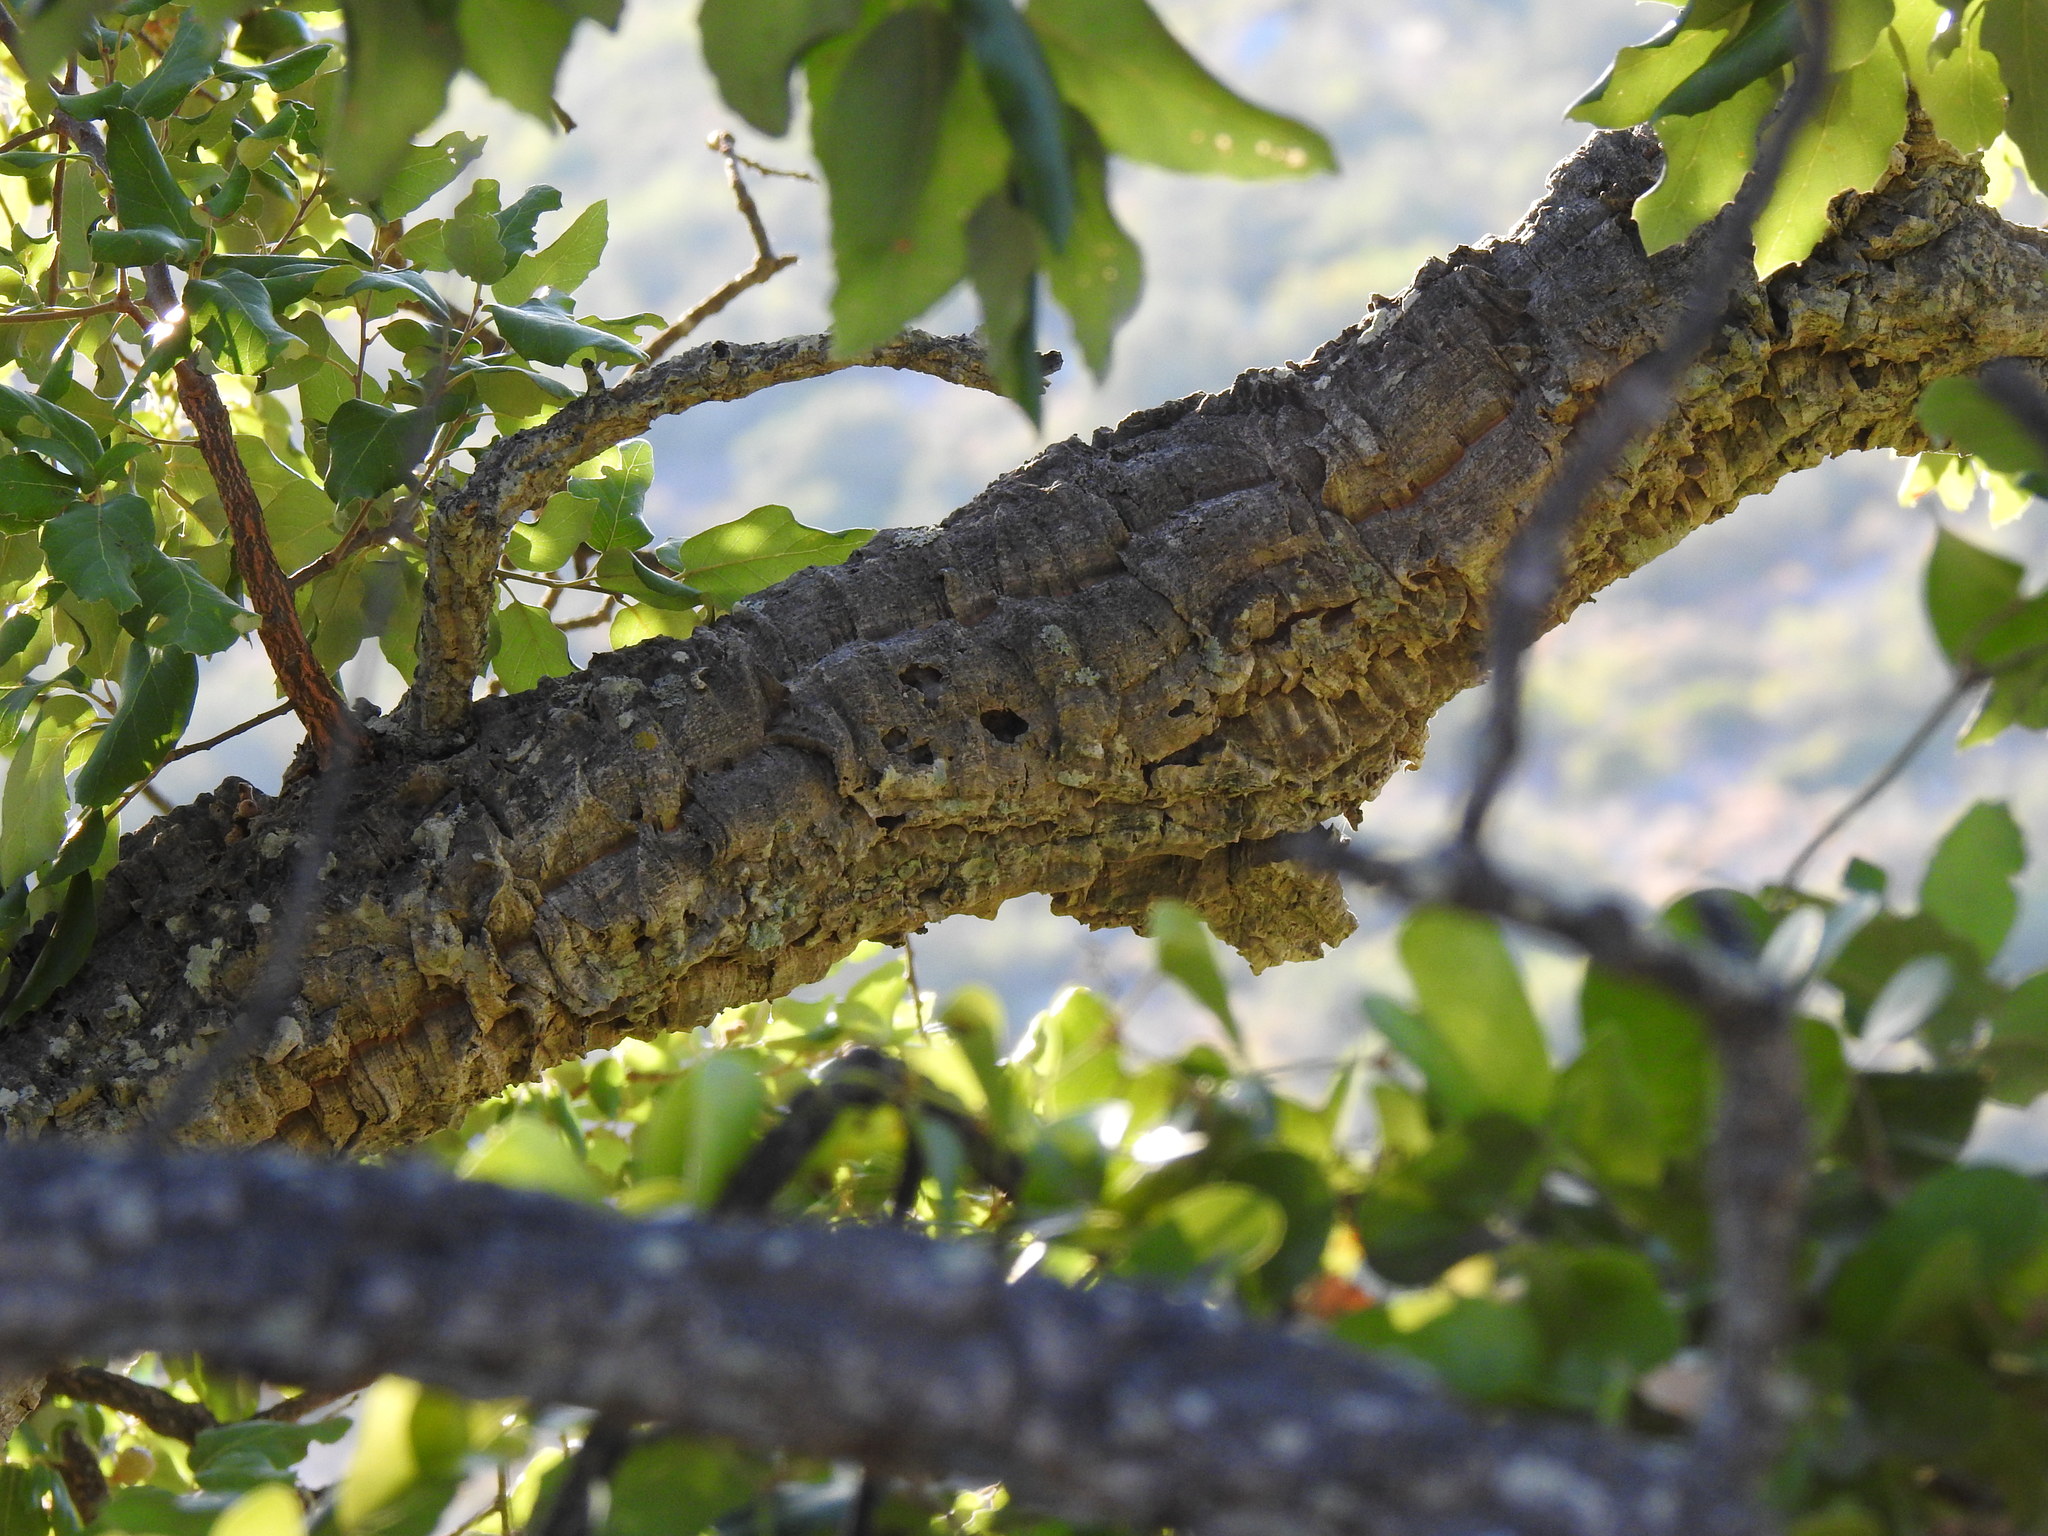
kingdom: Plantae
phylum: Tracheophyta
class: Magnoliopsida
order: Fagales
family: Fagaceae
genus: Quercus
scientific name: Quercus suber
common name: Cork oak
